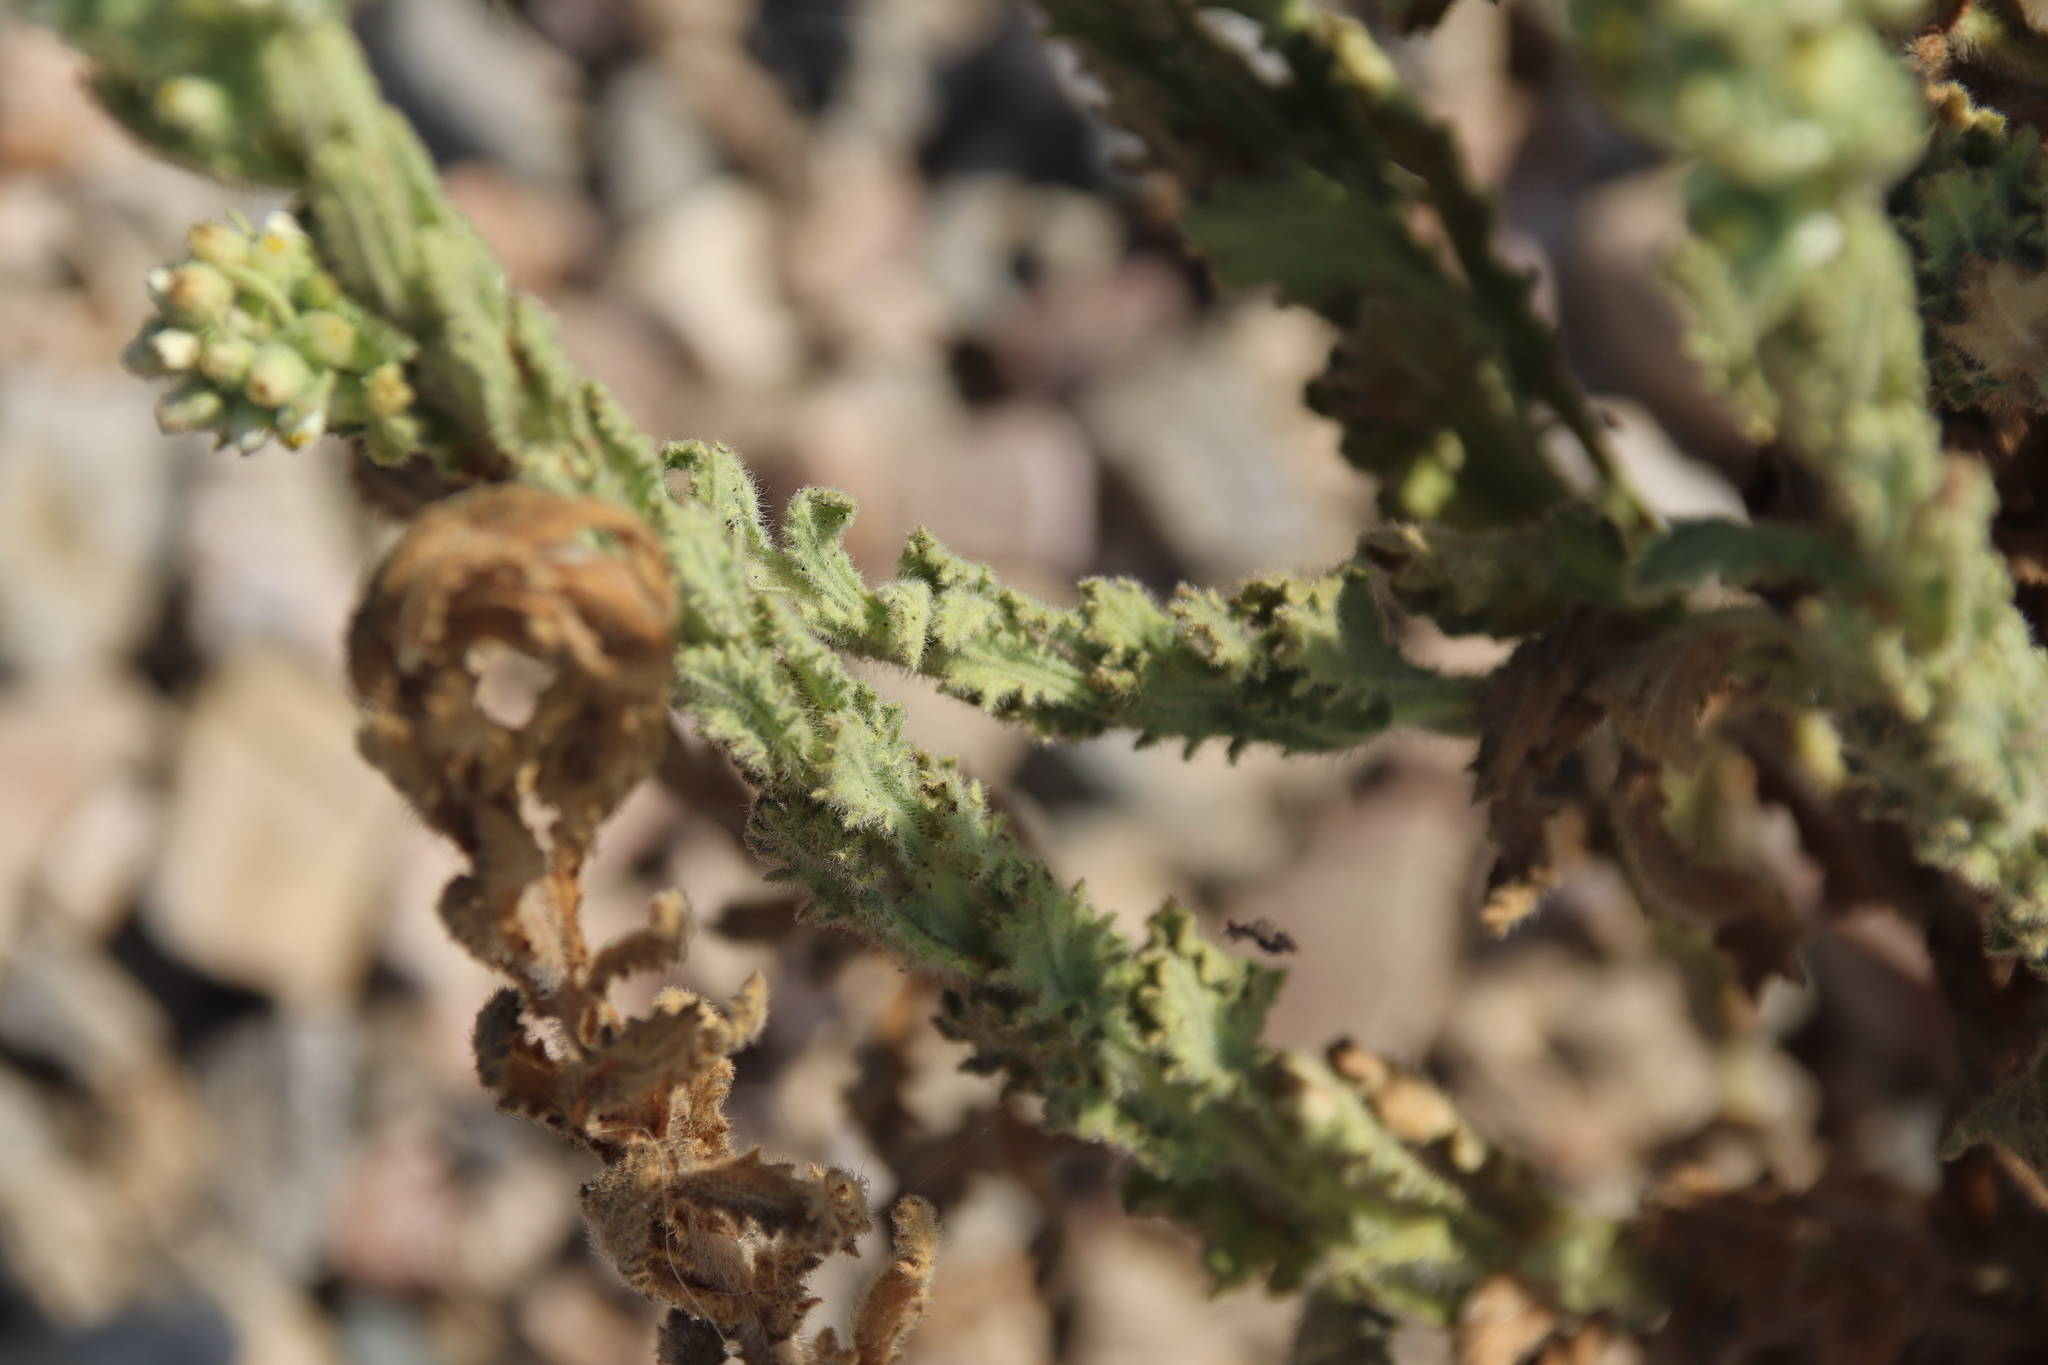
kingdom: Plantae
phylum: Tracheophyta
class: Magnoliopsida
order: Asterales
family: Asteraceae
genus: Laennecia
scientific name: Laennecia coulteri
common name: Coulter's woolwort
